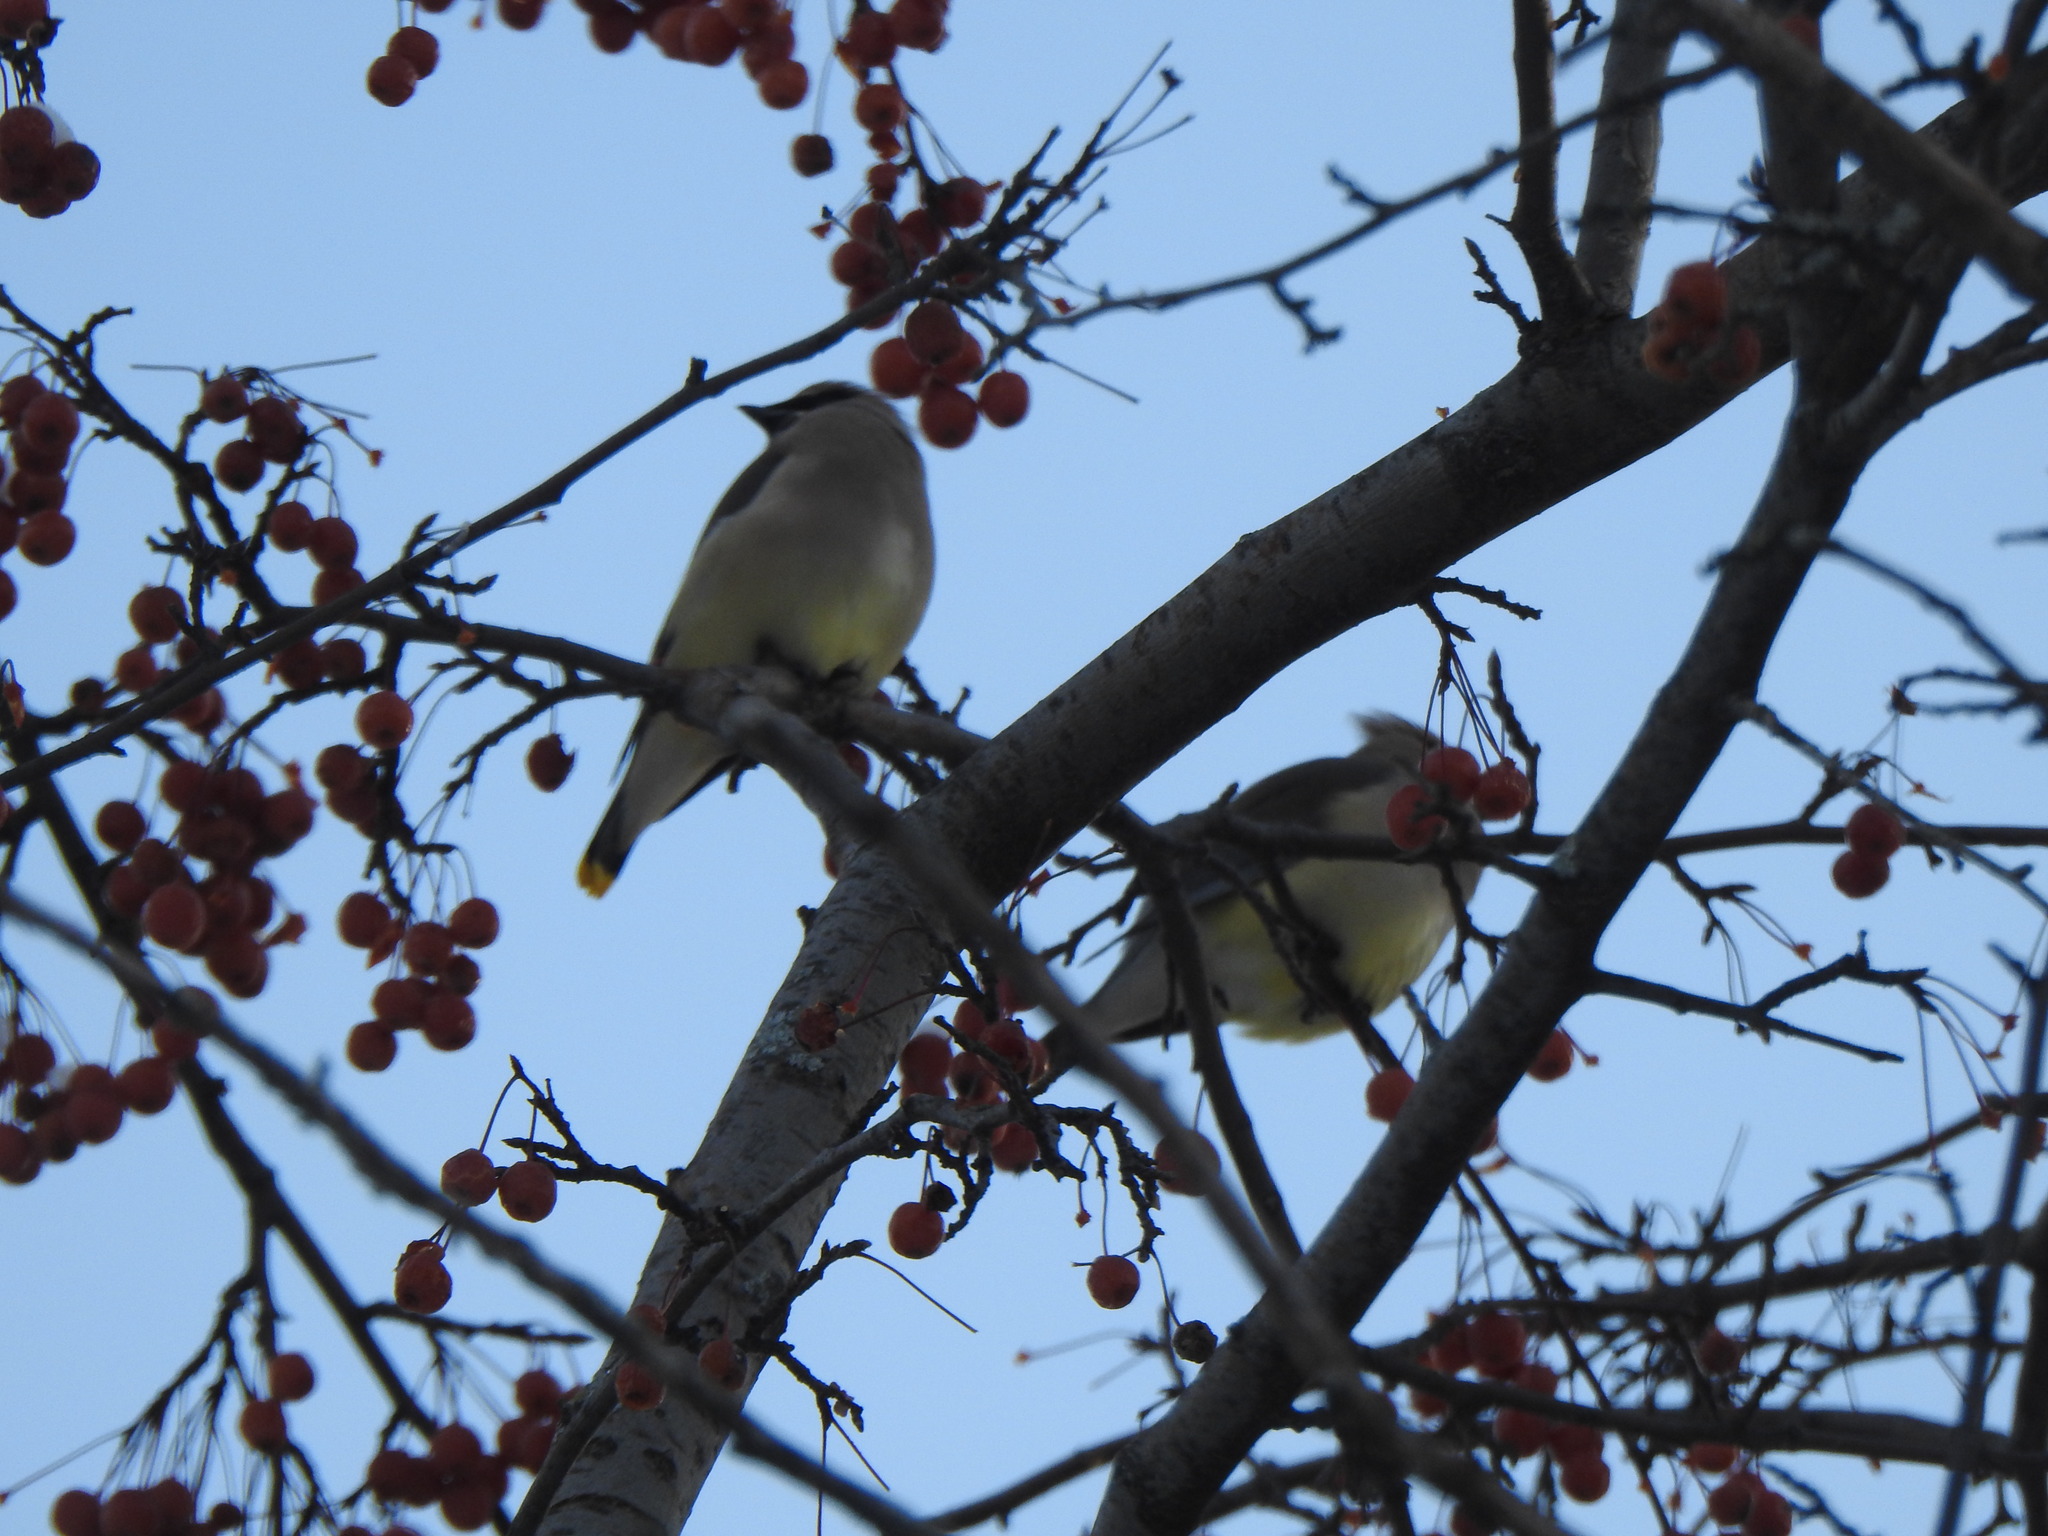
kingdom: Animalia
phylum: Chordata
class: Aves
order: Passeriformes
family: Bombycillidae
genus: Bombycilla
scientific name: Bombycilla cedrorum
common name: Cedar waxwing
